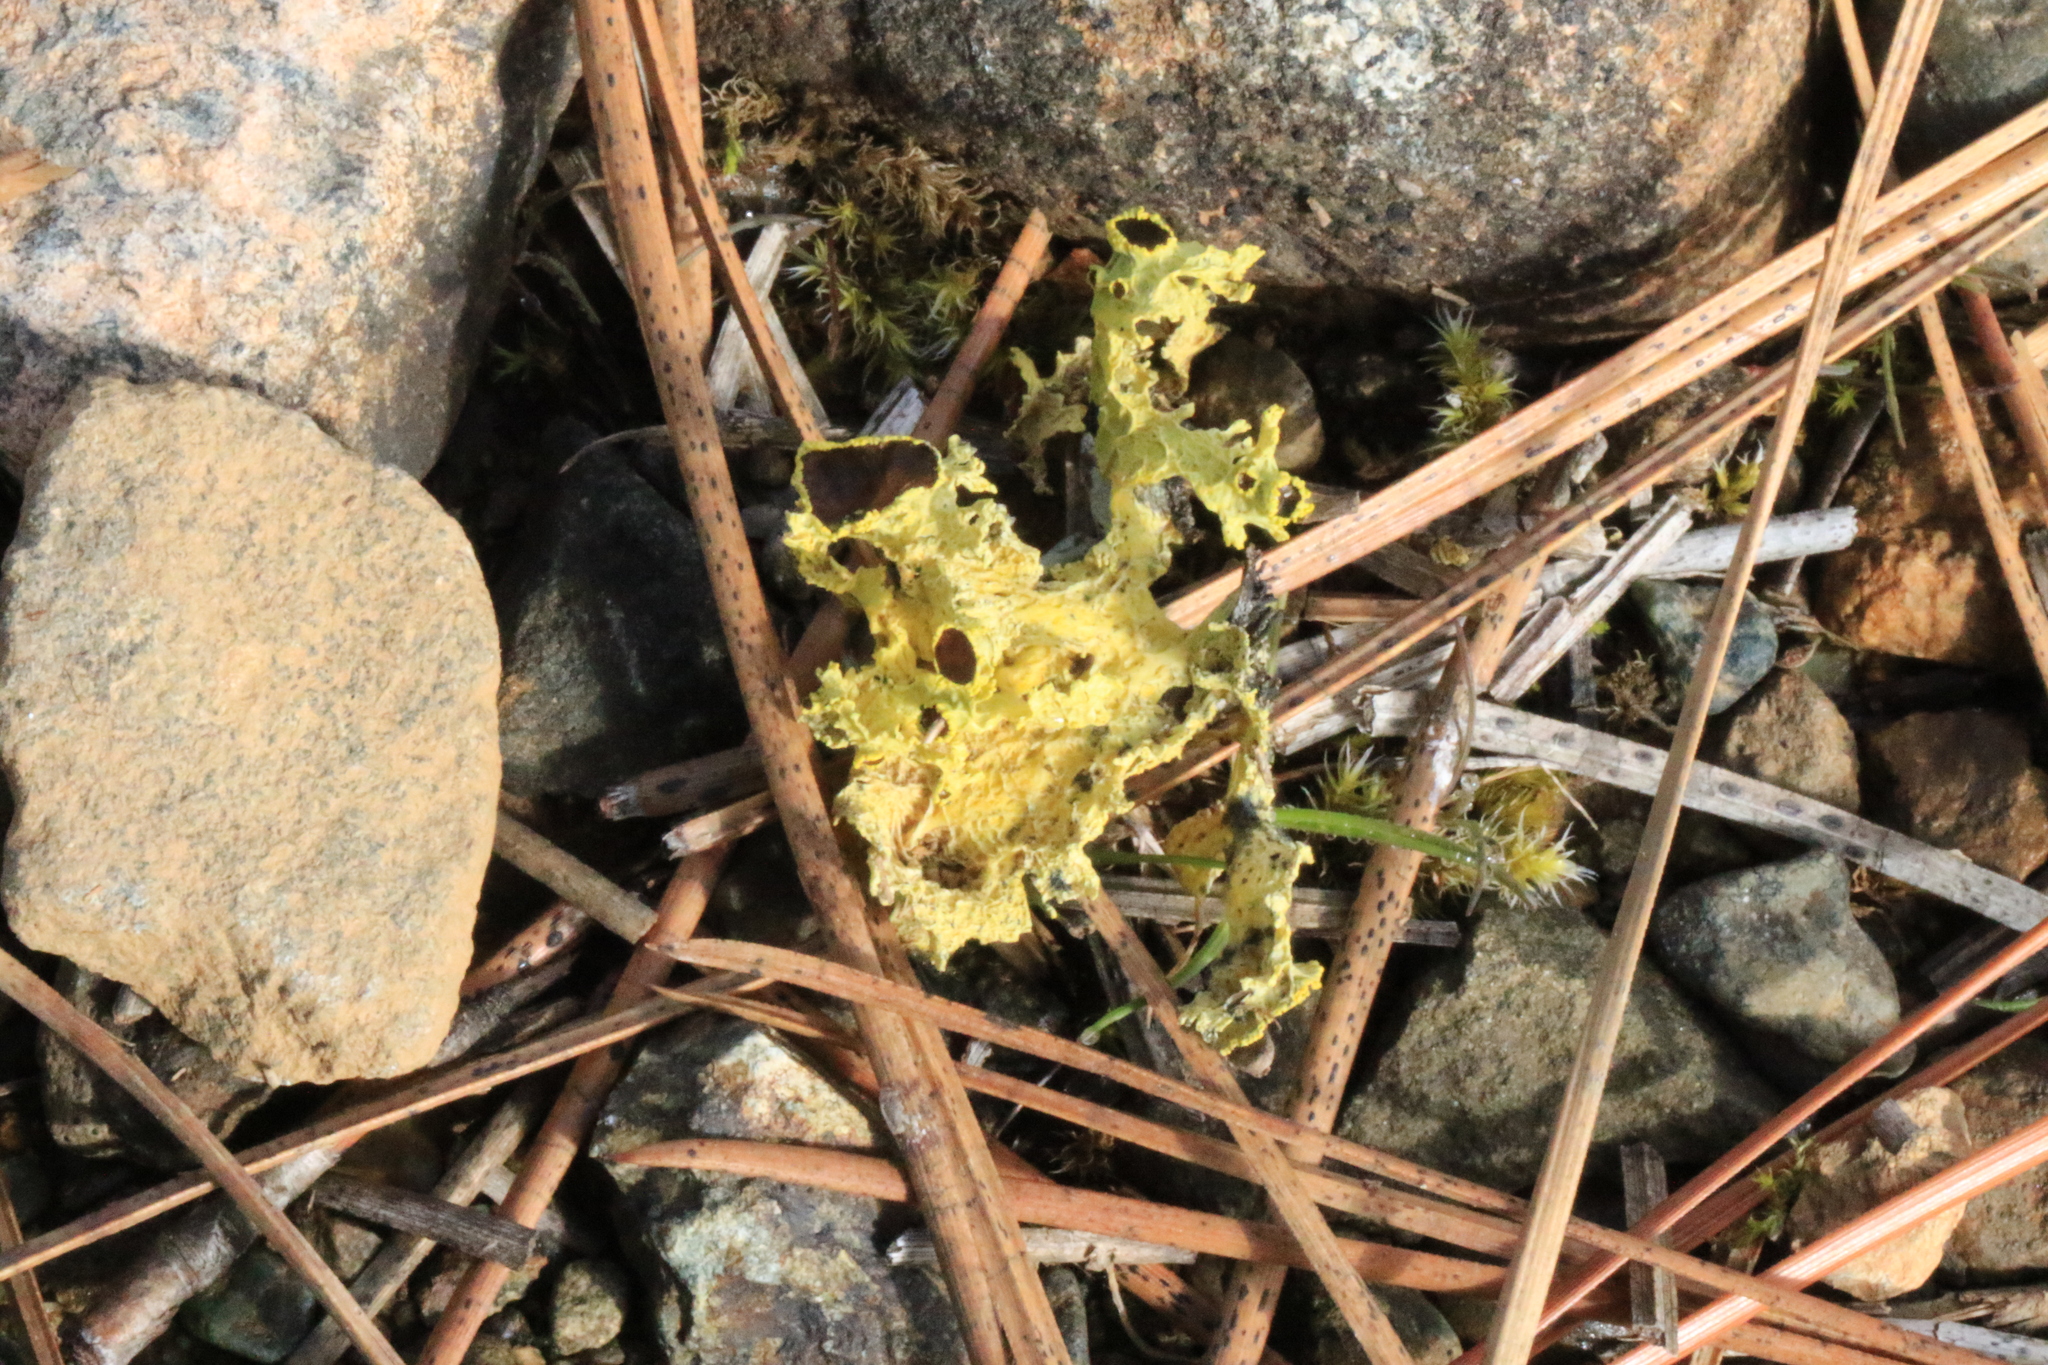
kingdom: Fungi
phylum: Ascomycota
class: Lecanoromycetes
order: Lecanorales
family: Parmeliaceae
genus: Vulpicida
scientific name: Vulpicida canadensis
